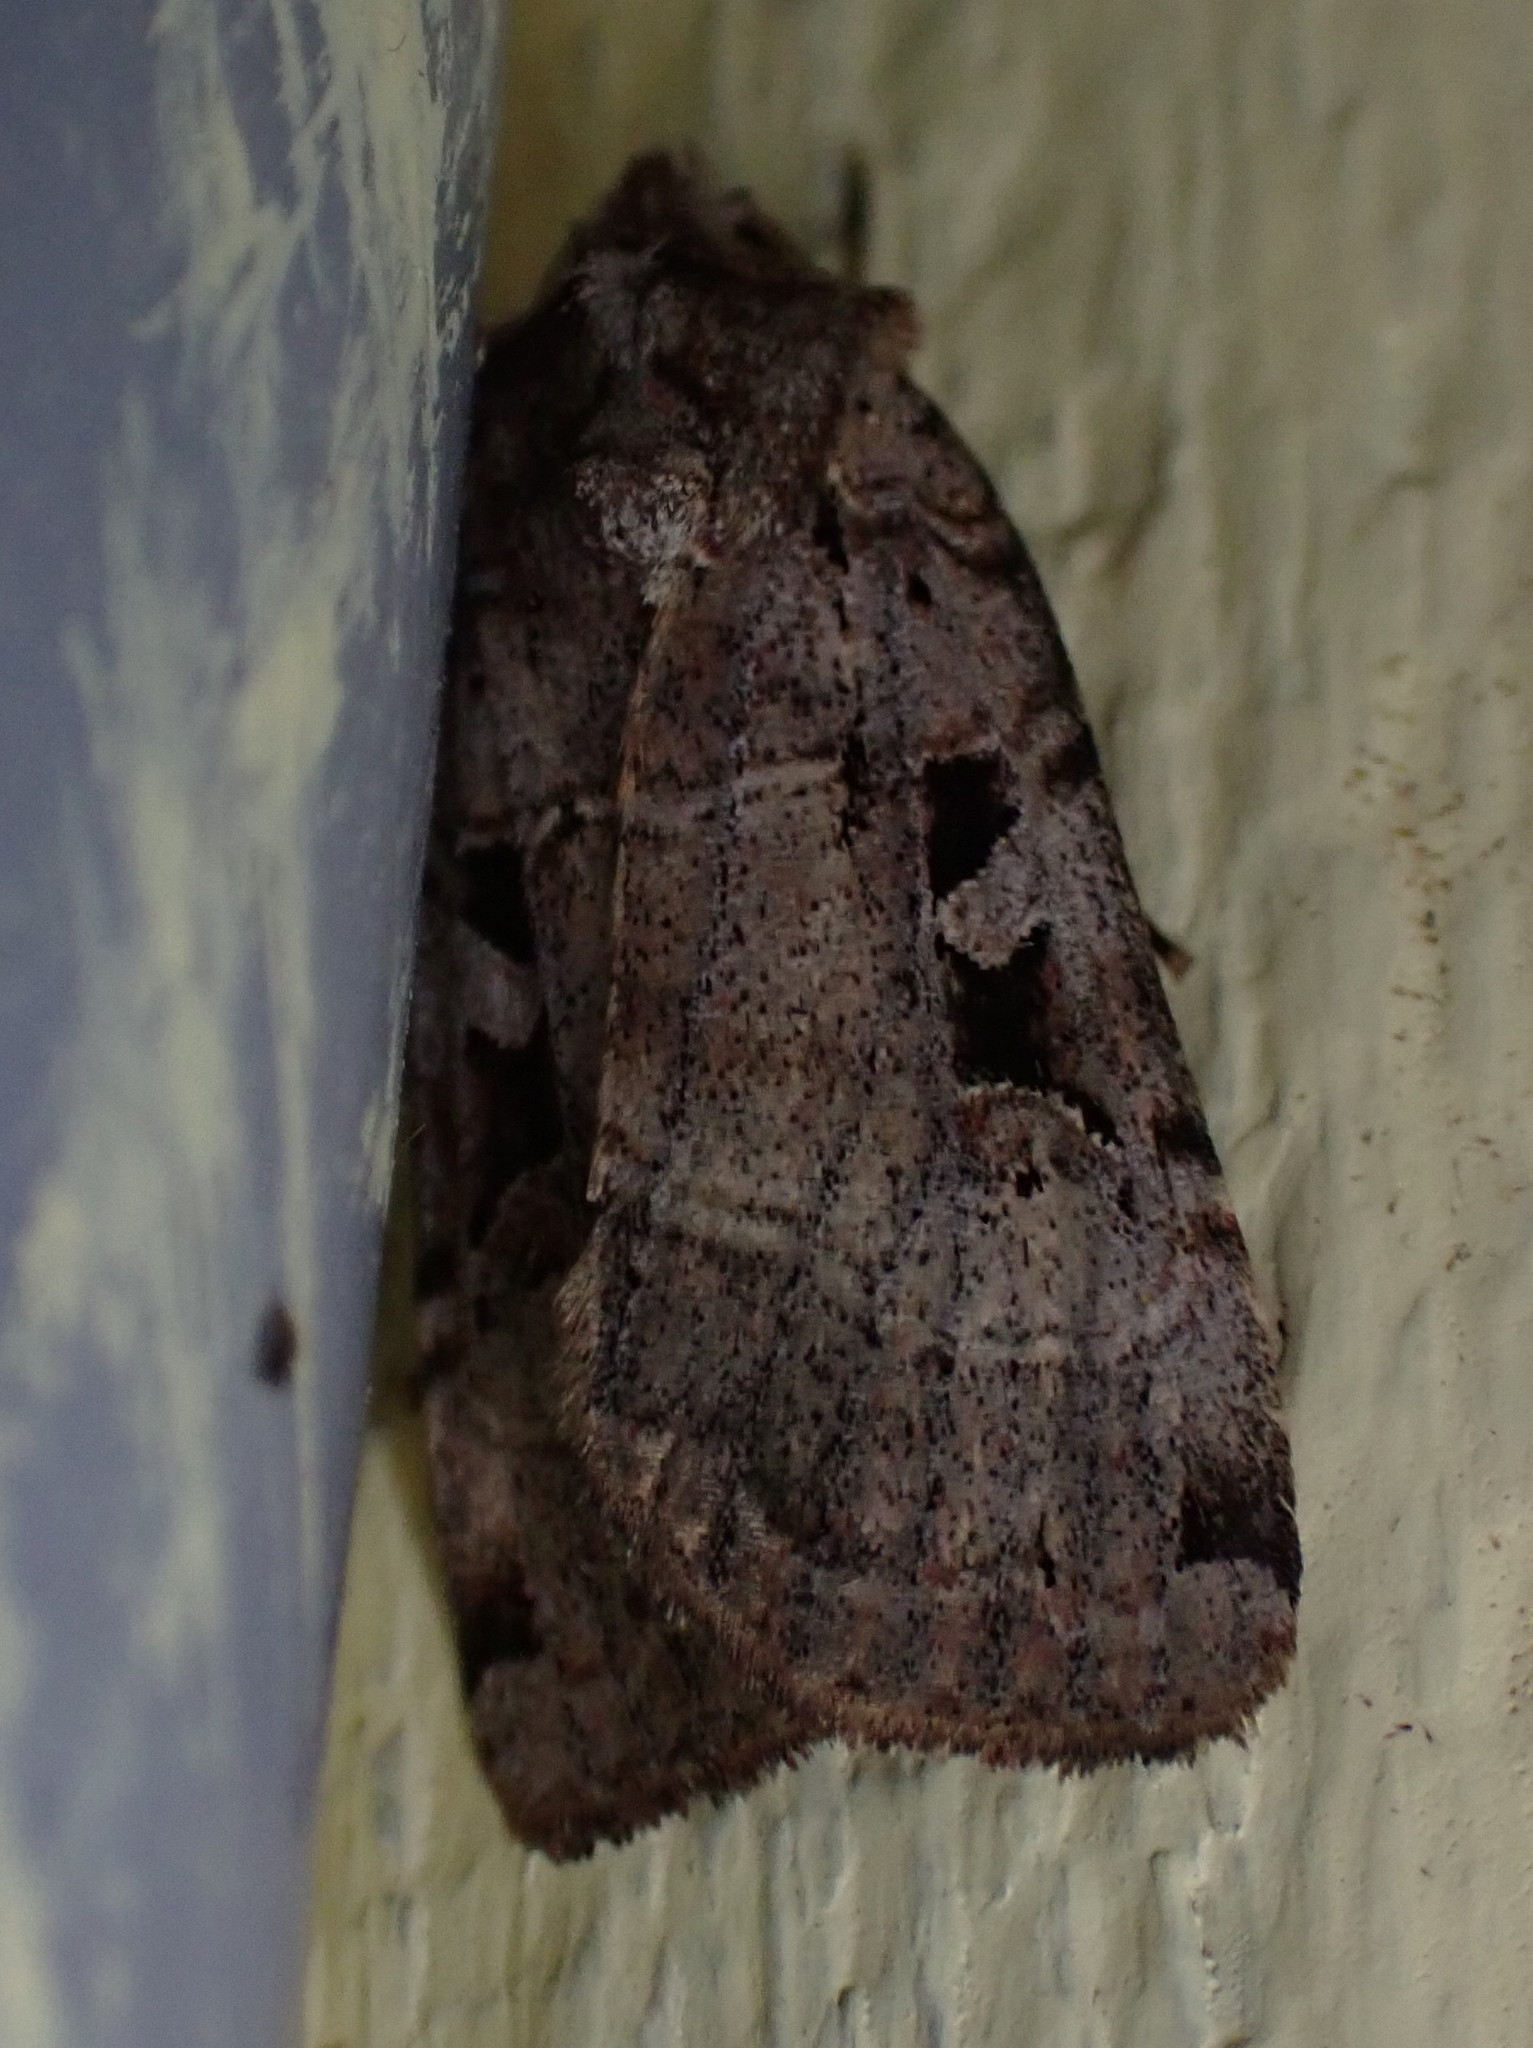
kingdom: Animalia
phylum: Arthropoda
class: Insecta
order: Lepidoptera
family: Noctuidae
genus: Xestia
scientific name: Xestia normaniana
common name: Norman's dart moth
